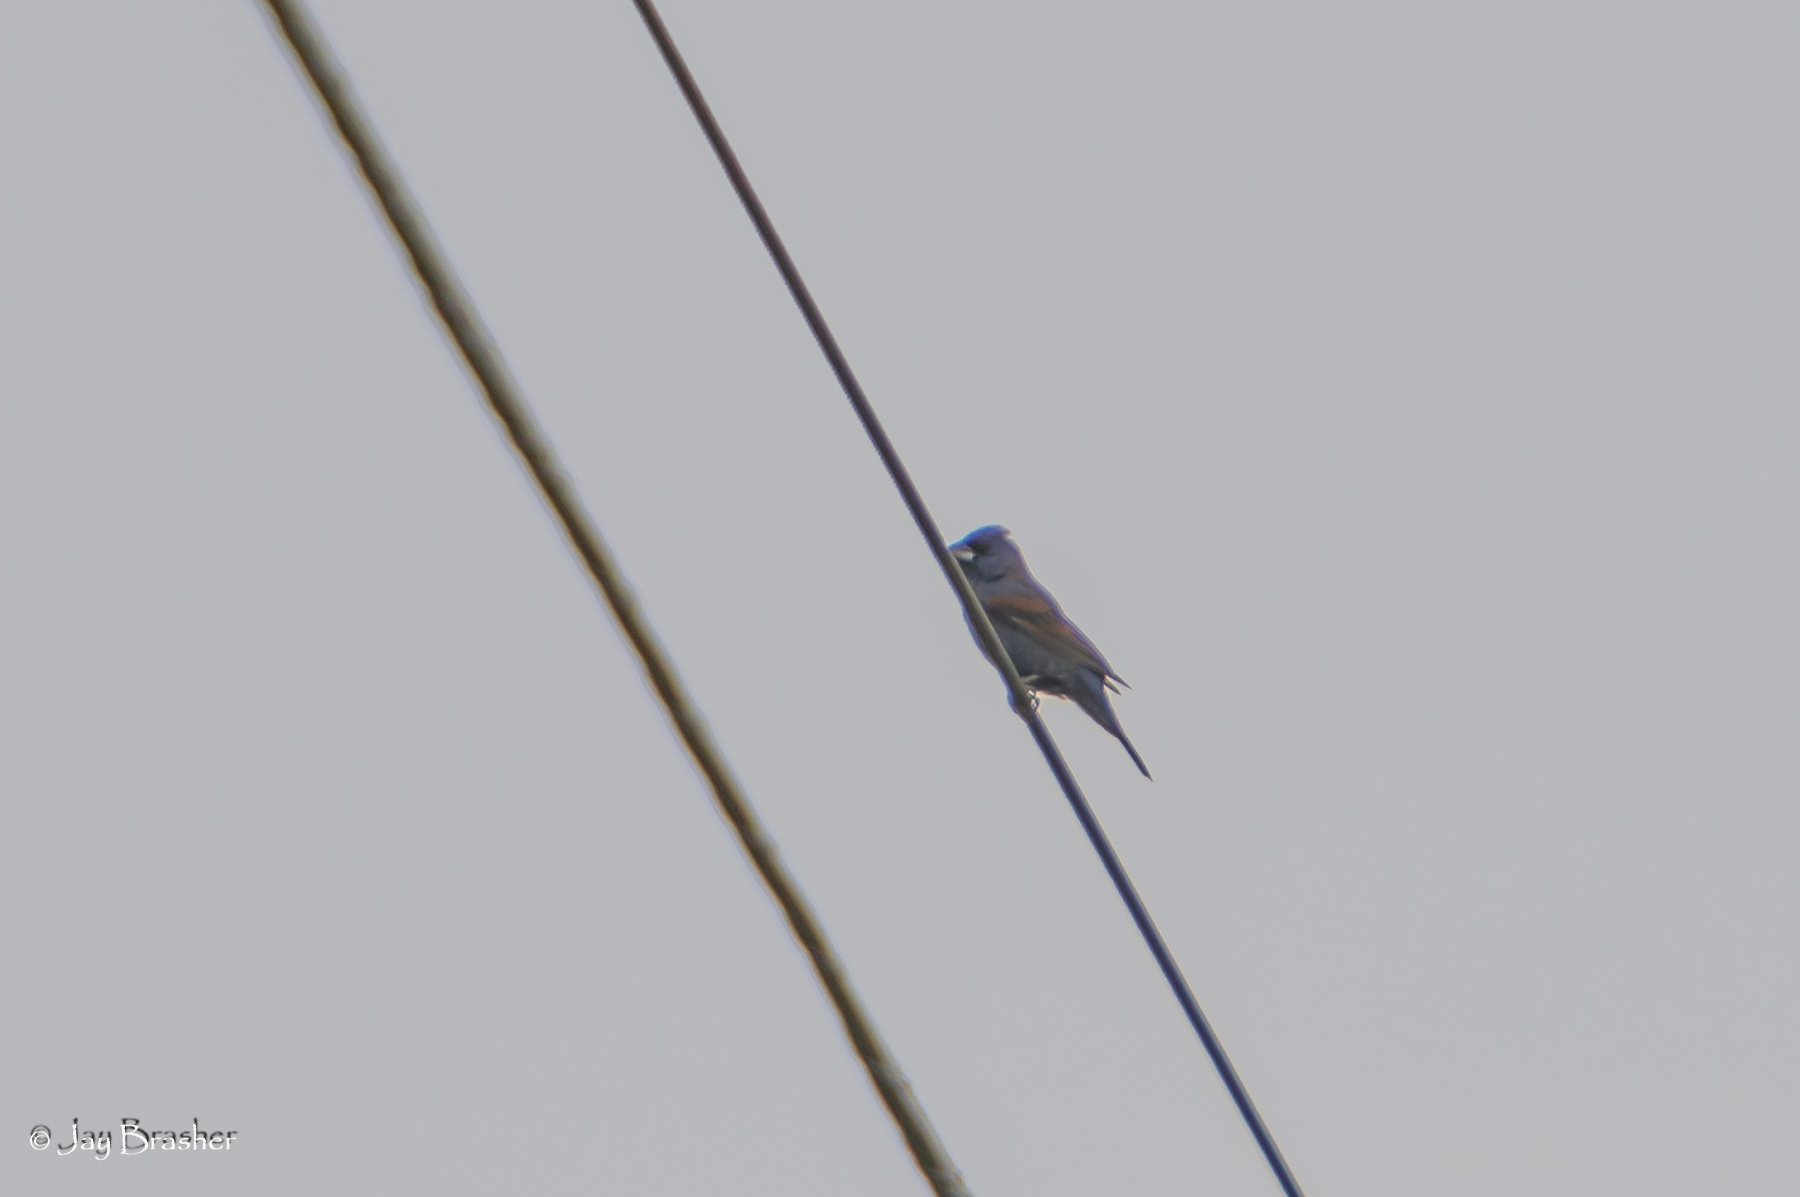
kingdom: Animalia
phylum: Chordata
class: Aves
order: Passeriformes
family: Cardinalidae
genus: Passerina
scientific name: Passerina caerulea
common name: Blue grosbeak
